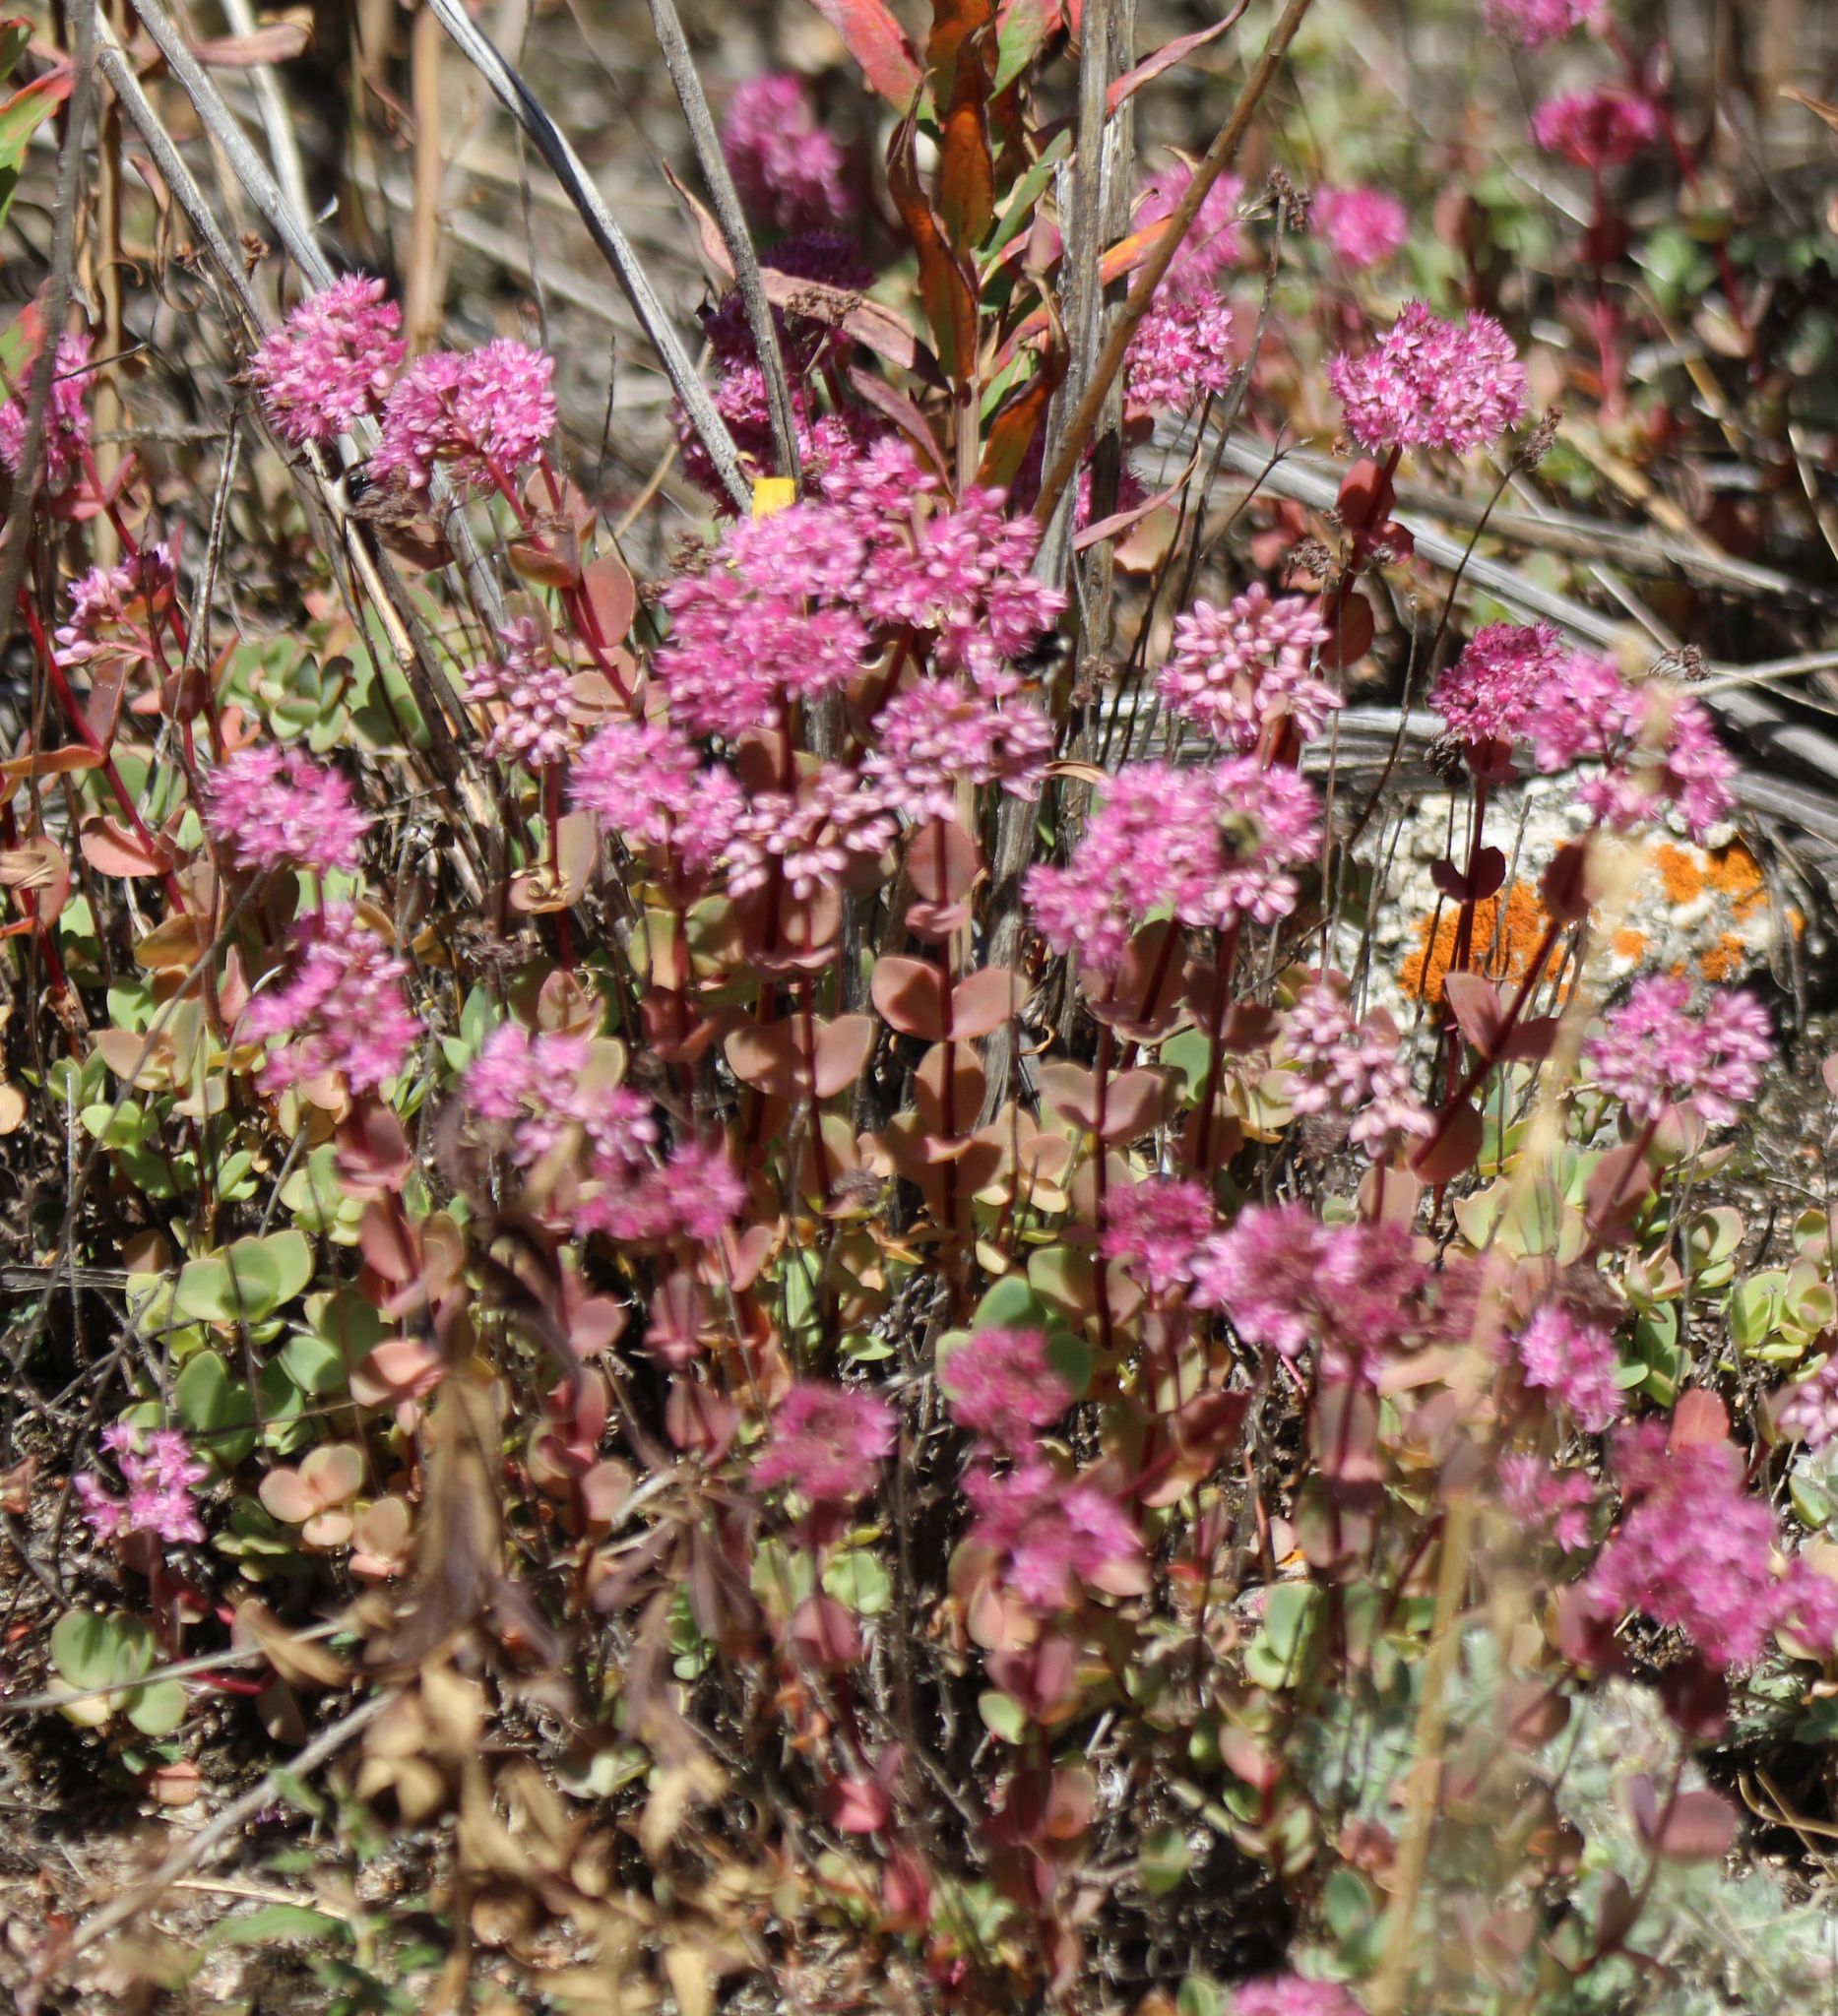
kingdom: Plantae
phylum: Tracheophyta
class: Magnoliopsida
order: Saxifragales
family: Crassulaceae
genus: Hylotelephium
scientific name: Hylotelephium ewersii
